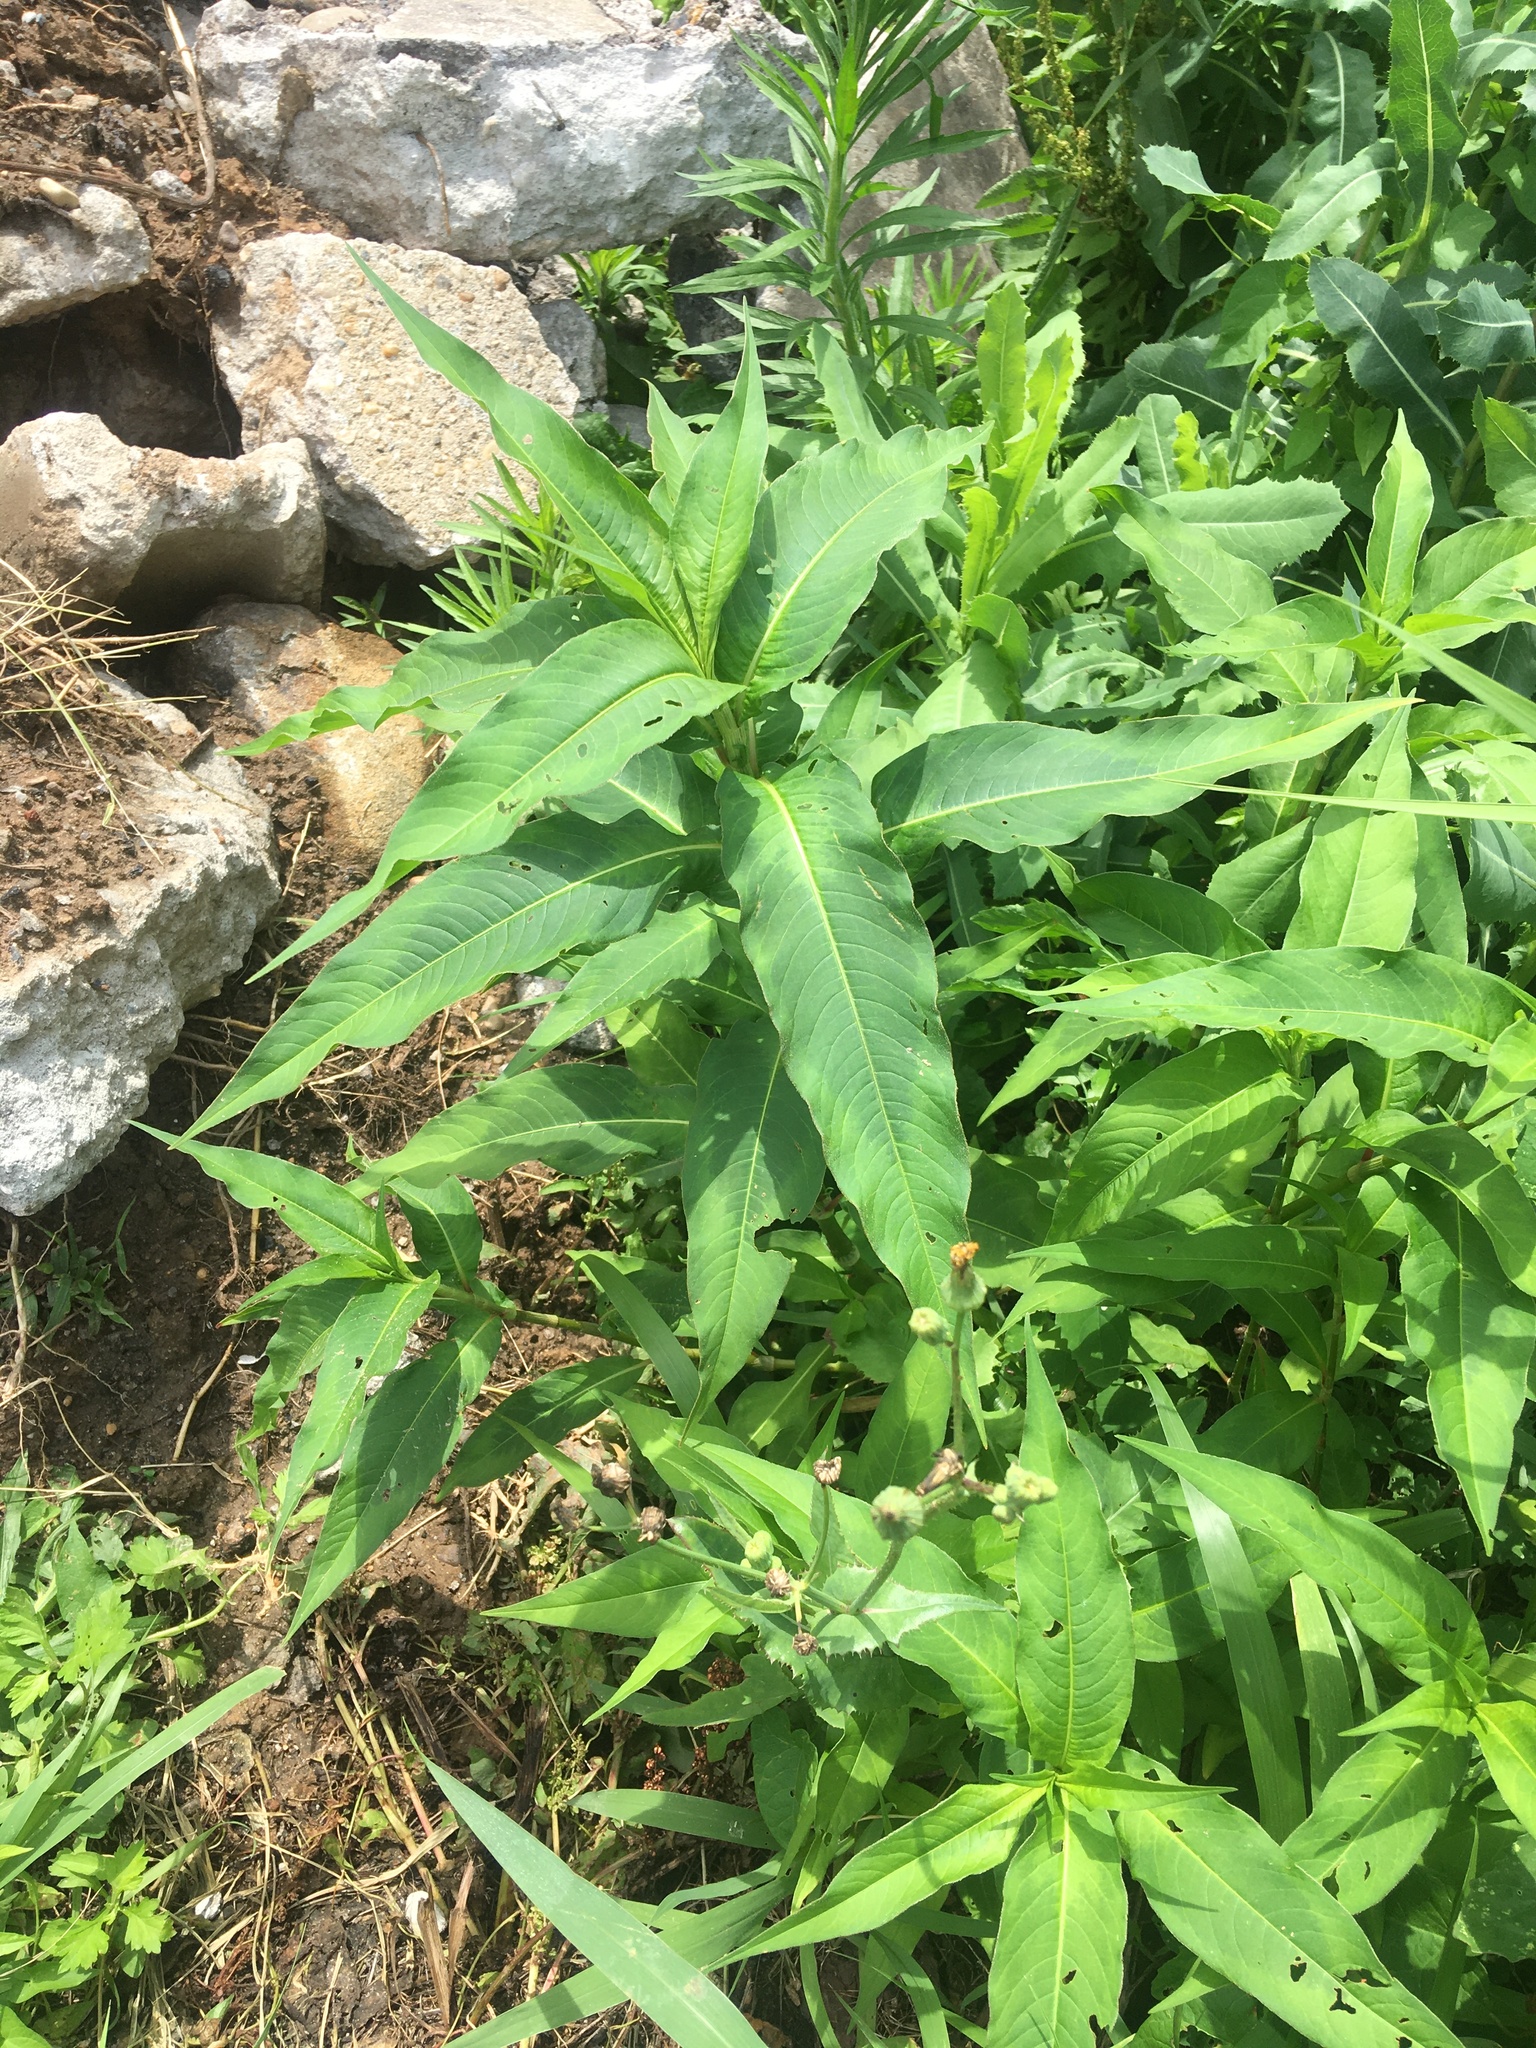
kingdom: Plantae
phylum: Tracheophyta
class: Magnoliopsida
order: Caryophyllales
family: Polygonaceae
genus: Persicaria
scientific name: Persicaria extremiorientalis
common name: Far-eastern smartweed
